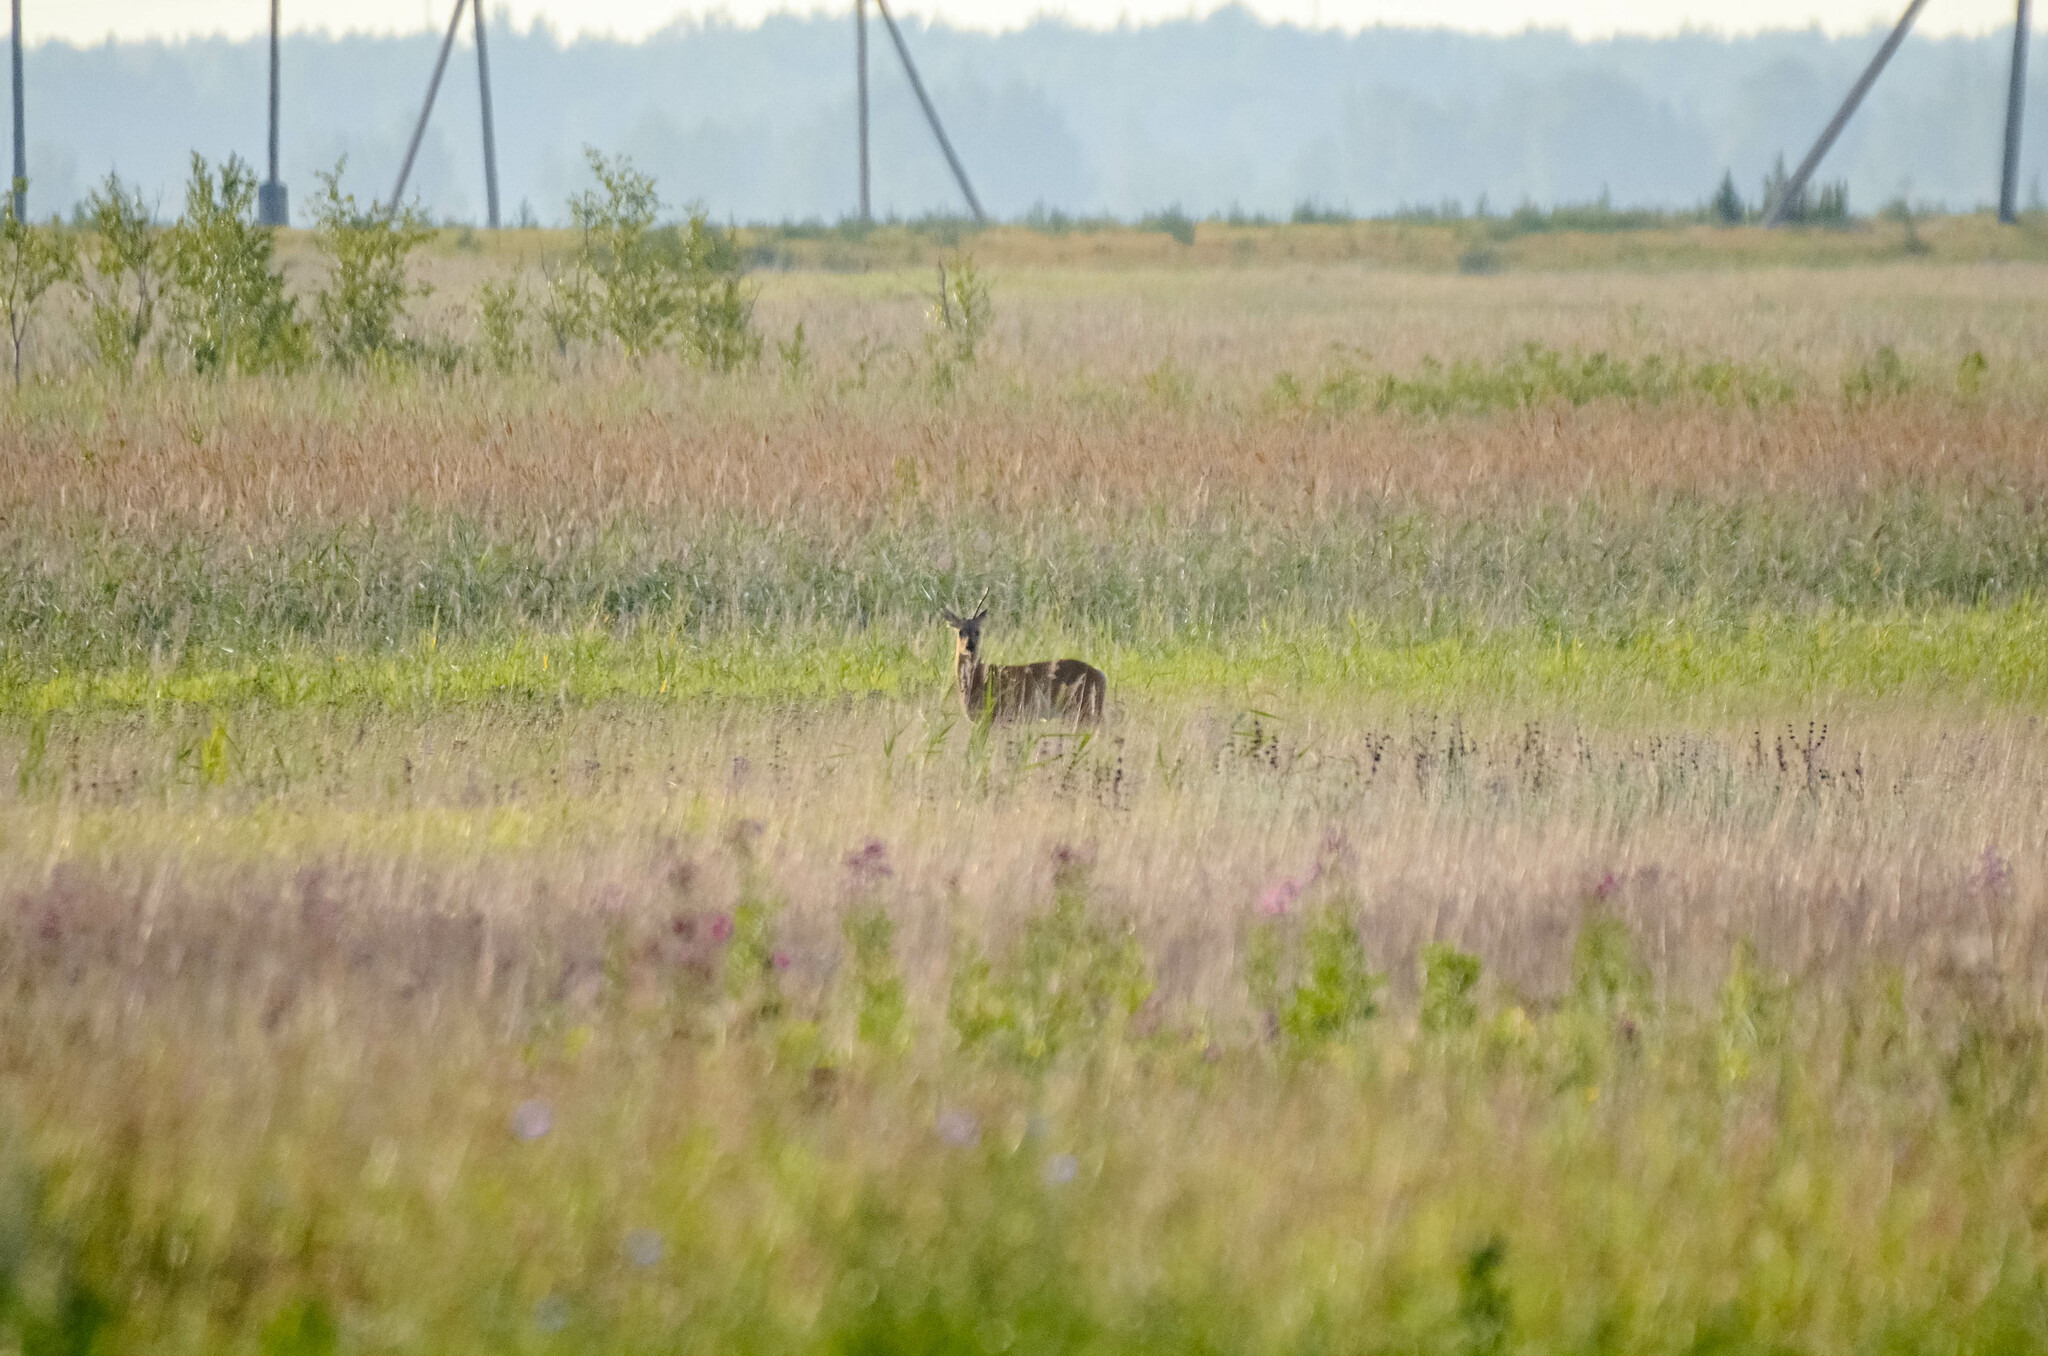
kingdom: Animalia
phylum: Chordata
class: Mammalia
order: Artiodactyla
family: Cervidae
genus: Capreolus
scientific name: Capreolus pygargus
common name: Siberian roe
